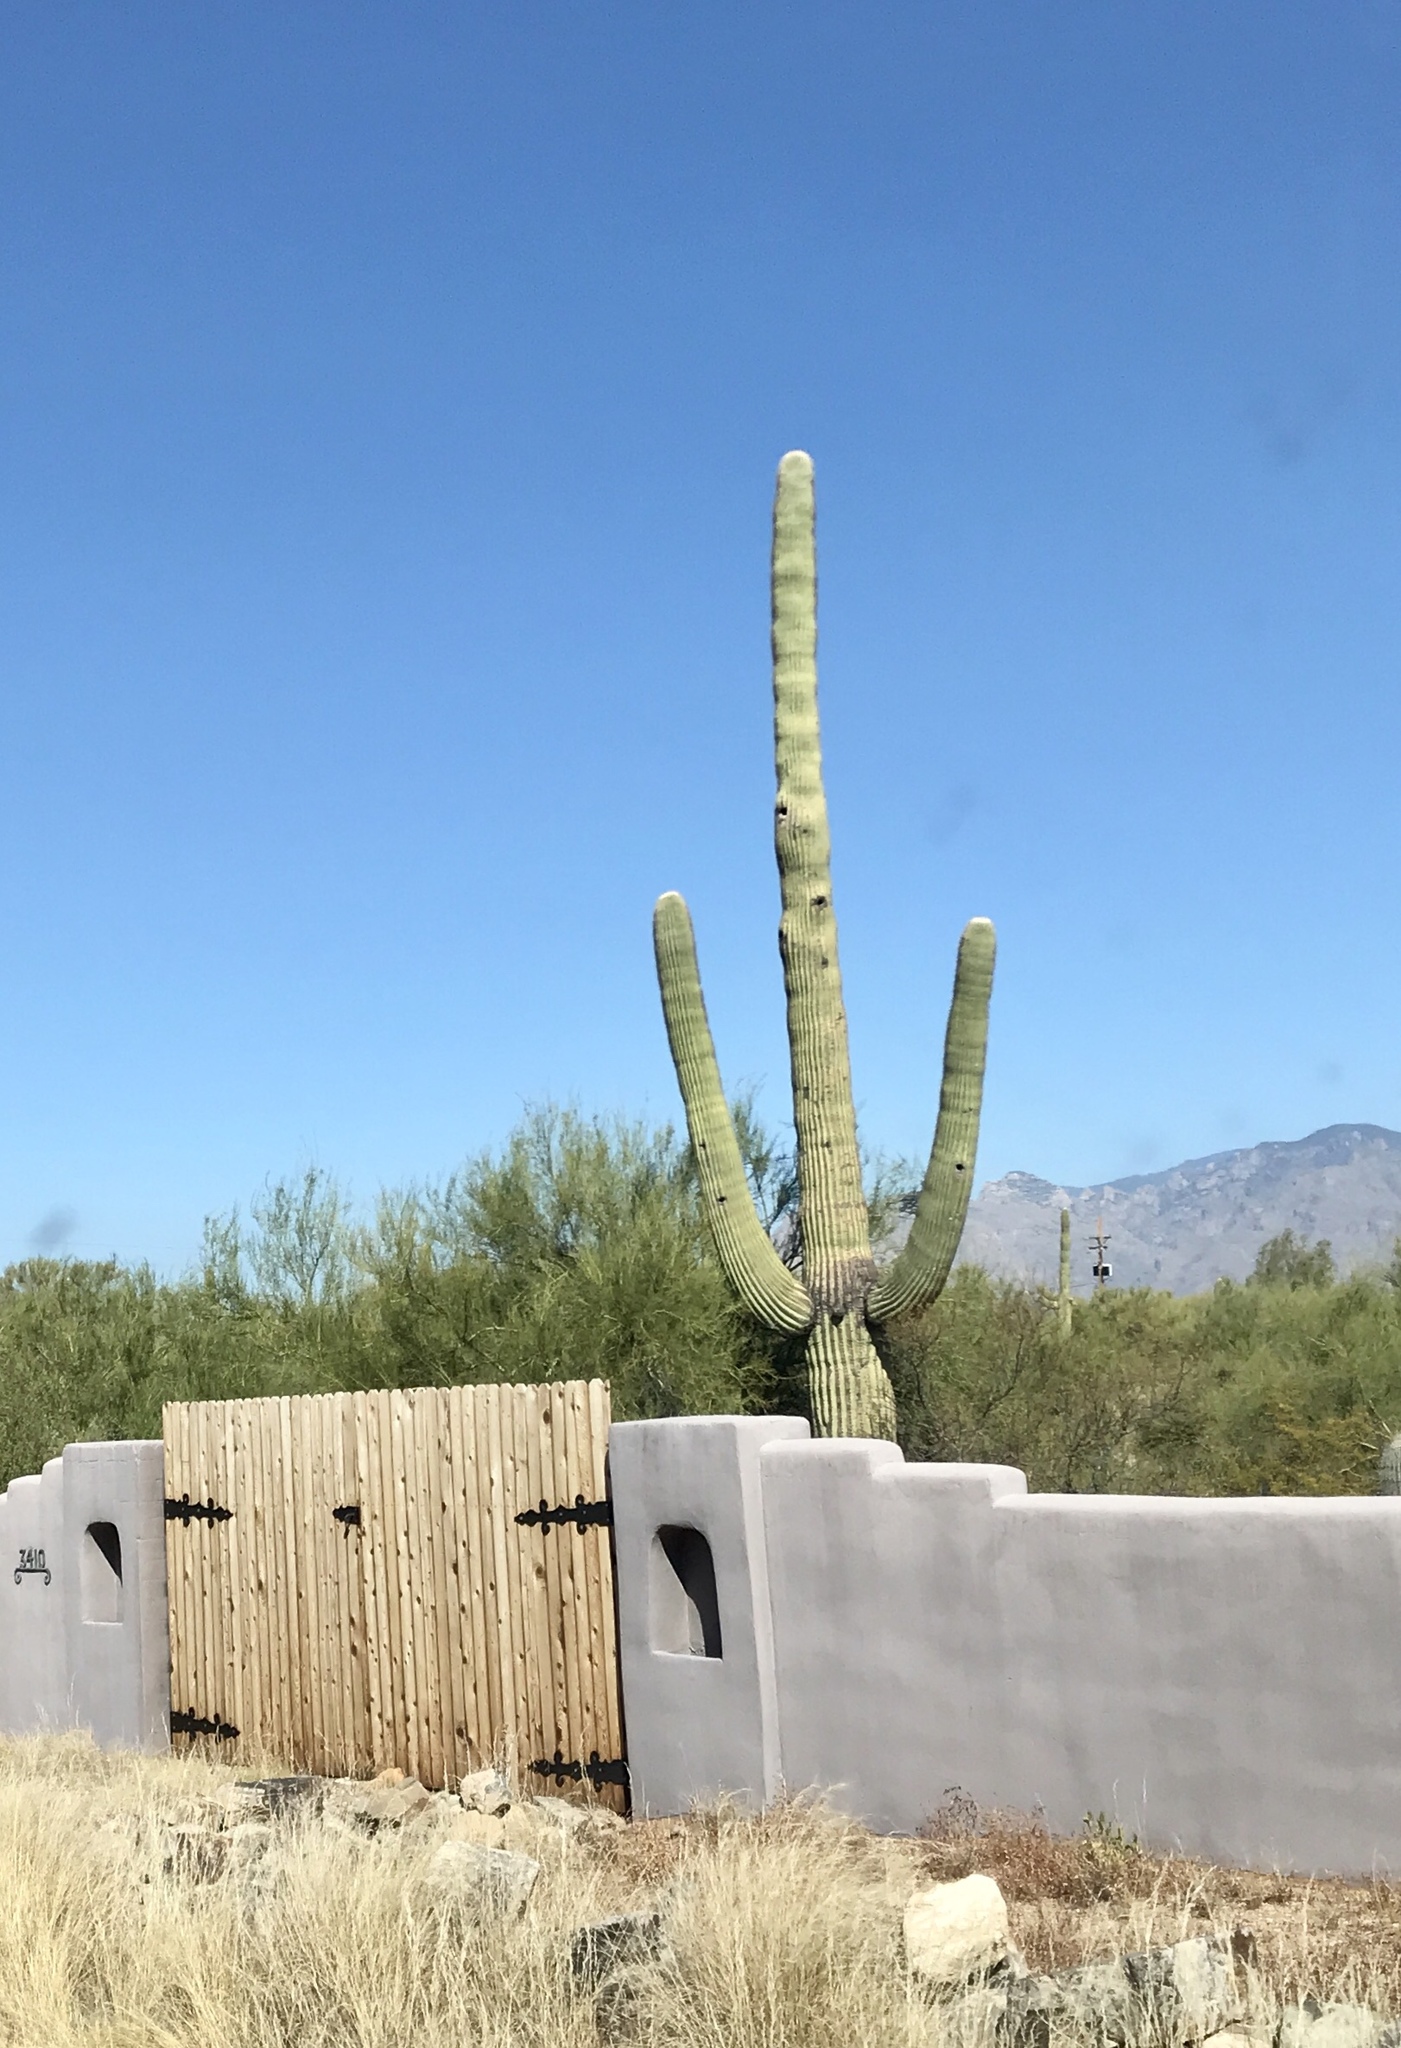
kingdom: Plantae
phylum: Tracheophyta
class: Magnoliopsida
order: Caryophyllales
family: Cactaceae
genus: Carnegiea
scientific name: Carnegiea gigantea
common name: Saguaro
